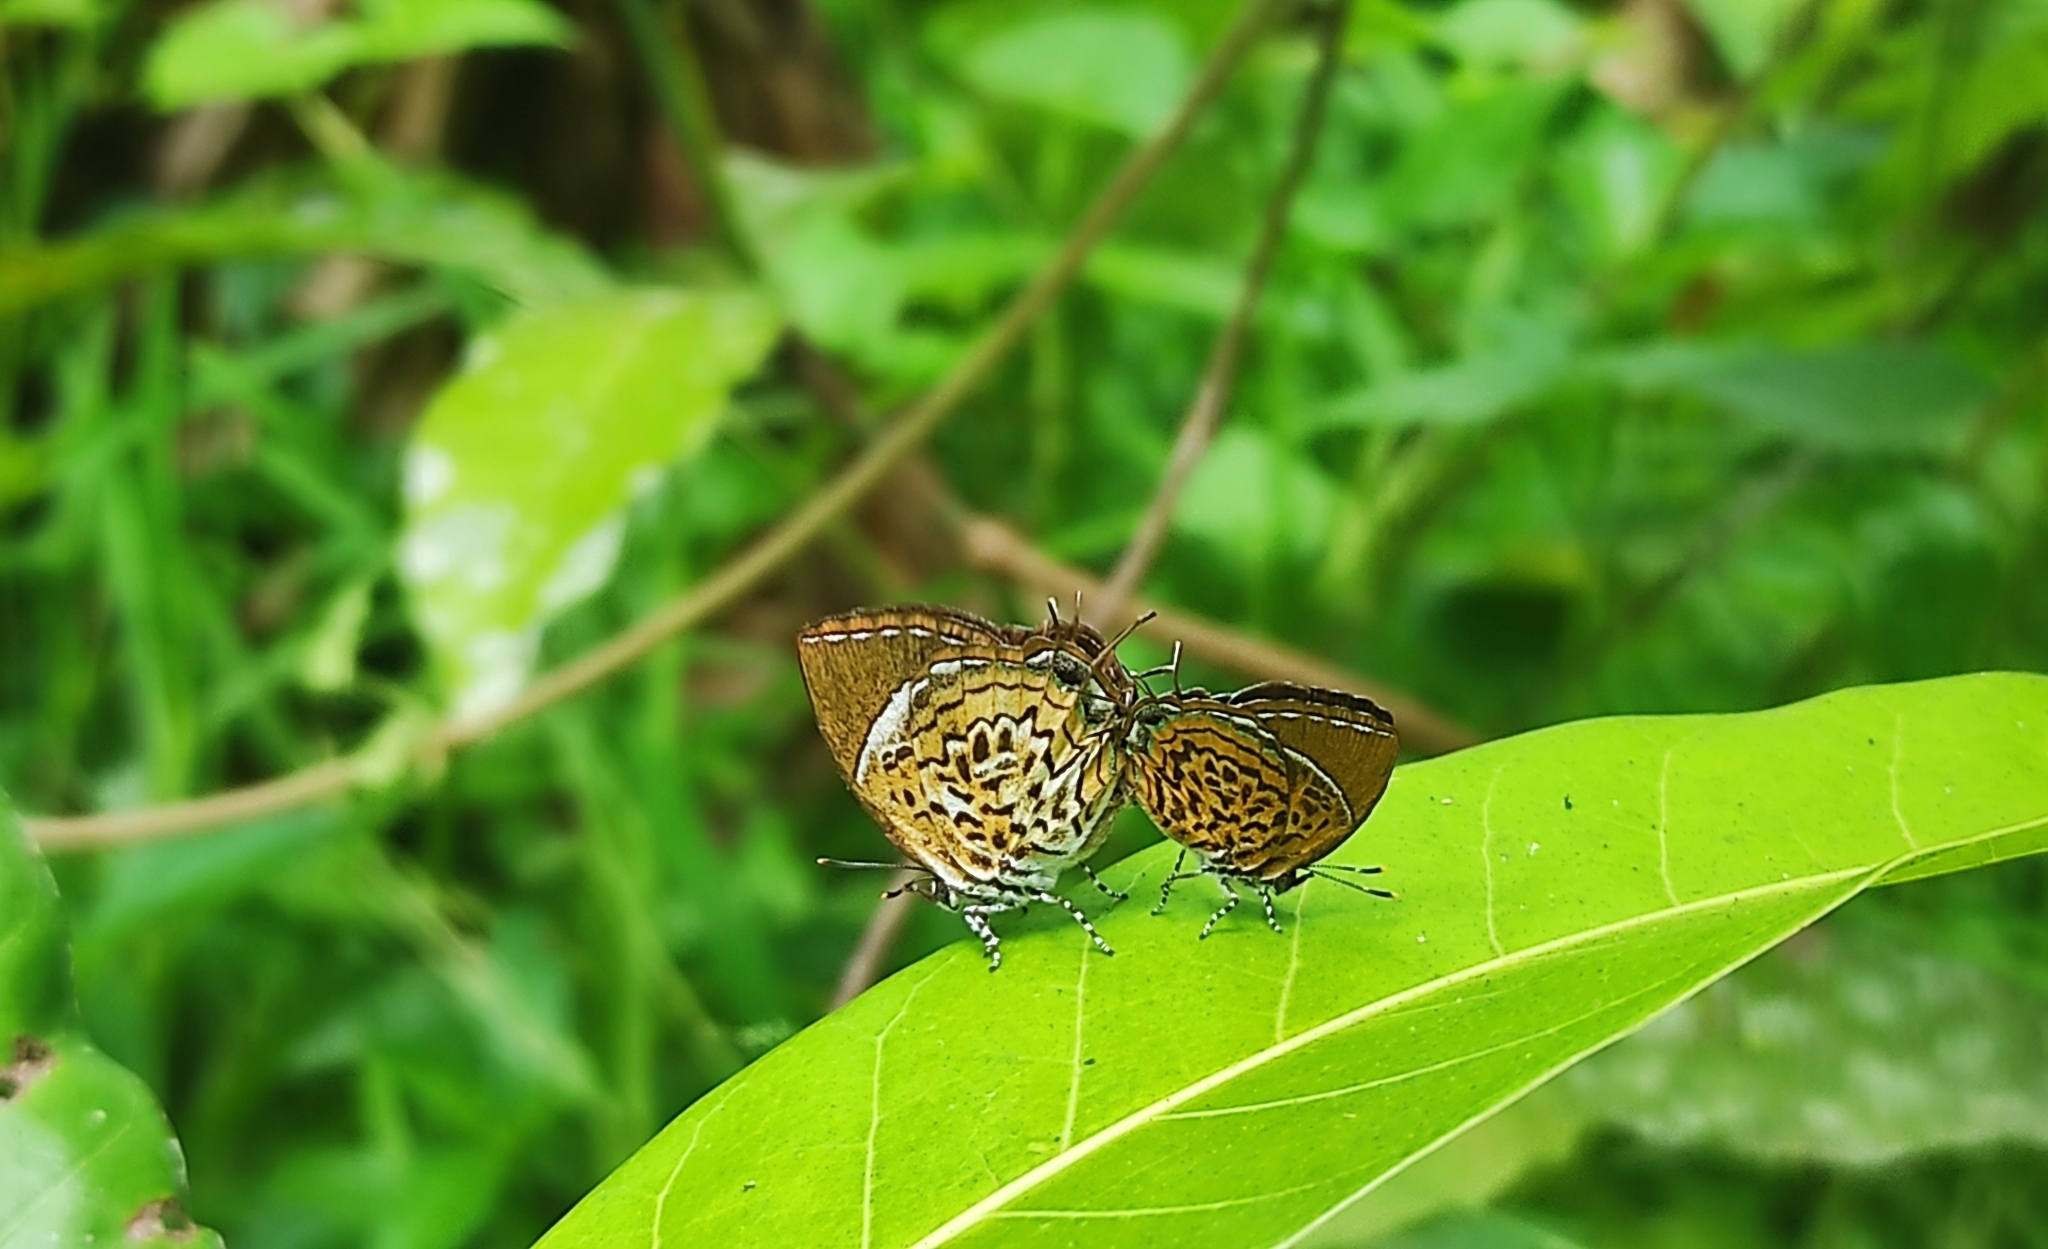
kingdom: Animalia
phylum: Arthropoda
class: Insecta
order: Lepidoptera
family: Lycaenidae
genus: Rathinda
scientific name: Rathinda amor
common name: Monkey puzzle
